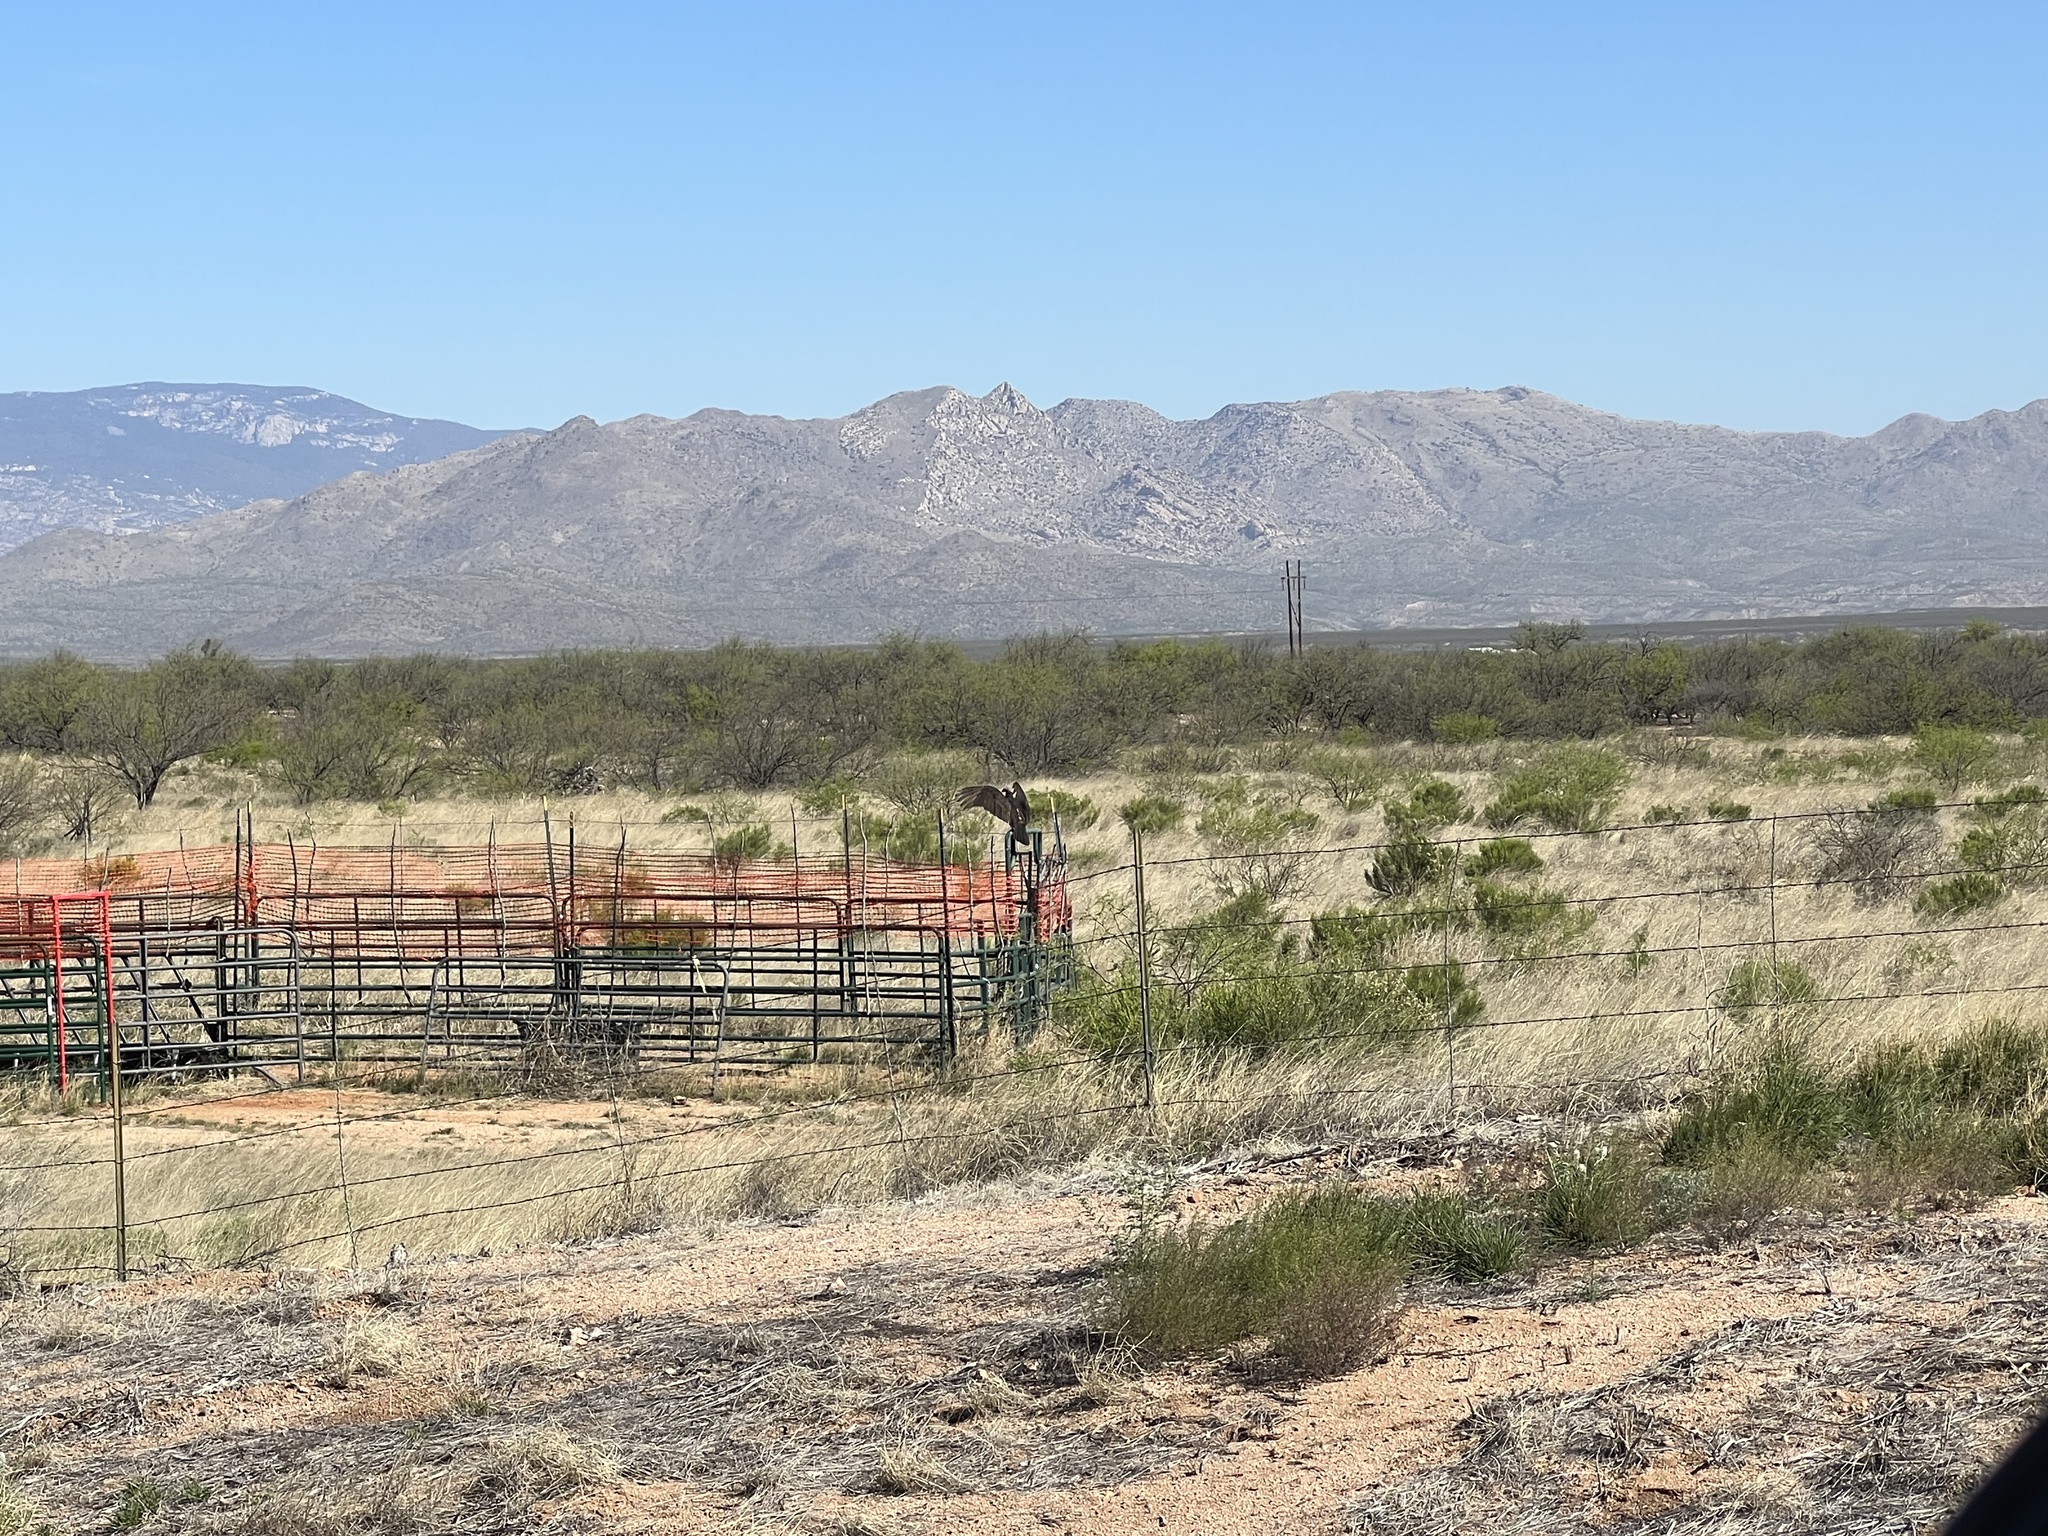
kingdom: Animalia
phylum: Chordata
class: Aves
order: Accipitriformes
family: Cathartidae
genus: Cathartes
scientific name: Cathartes aura
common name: Turkey vulture
